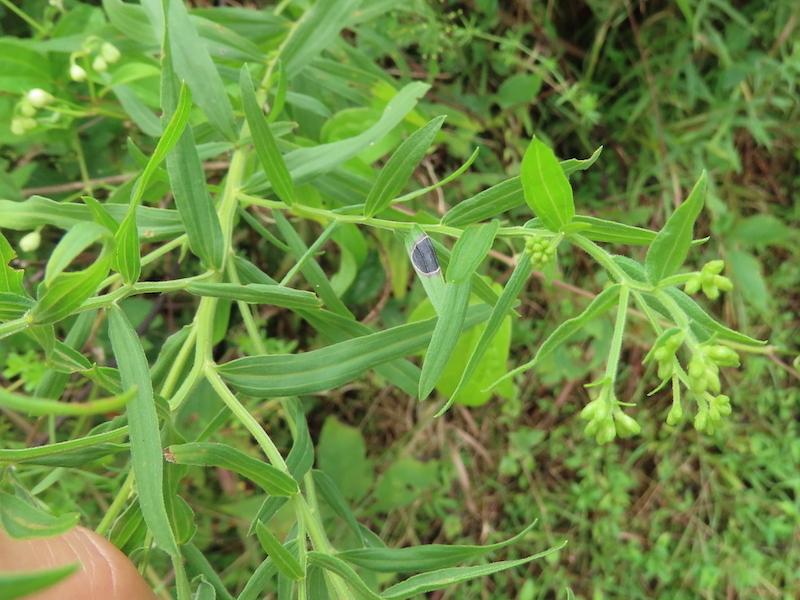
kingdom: Animalia
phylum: Arthropoda
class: Insecta
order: Diptera
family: Cecidomyiidae
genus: Asteromyia
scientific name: Asteromyia euthamiae
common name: Euthamia leaf gall midge
